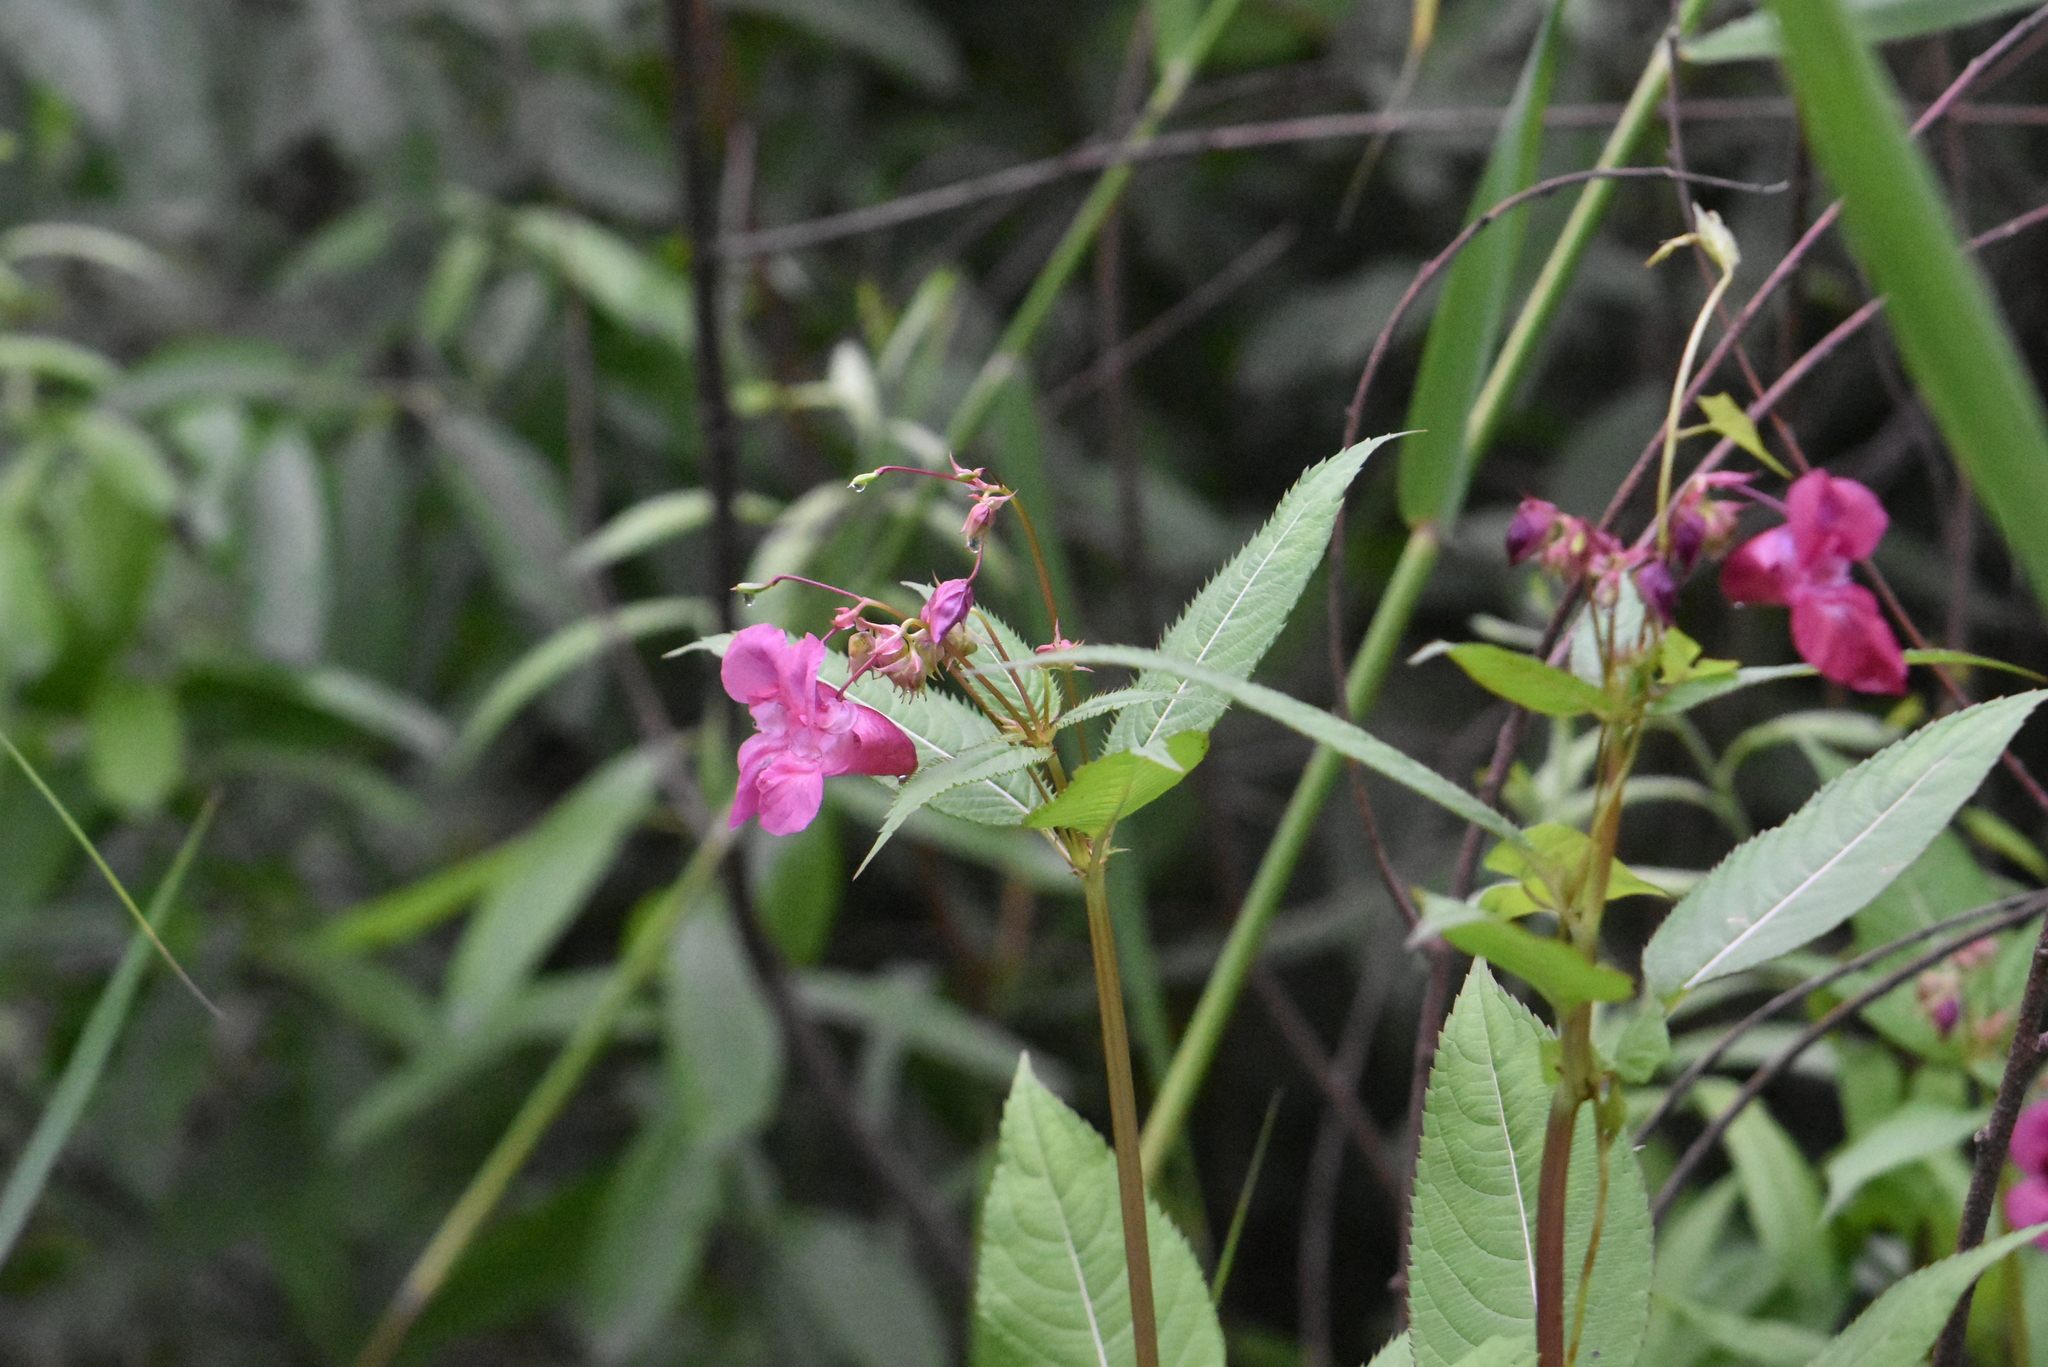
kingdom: Plantae
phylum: Tracheophyta
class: Magnoliopsida
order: Ericales
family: Balsaminaceae
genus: Impatiens
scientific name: Impatiens glandulifera
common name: Himalayan balsam
